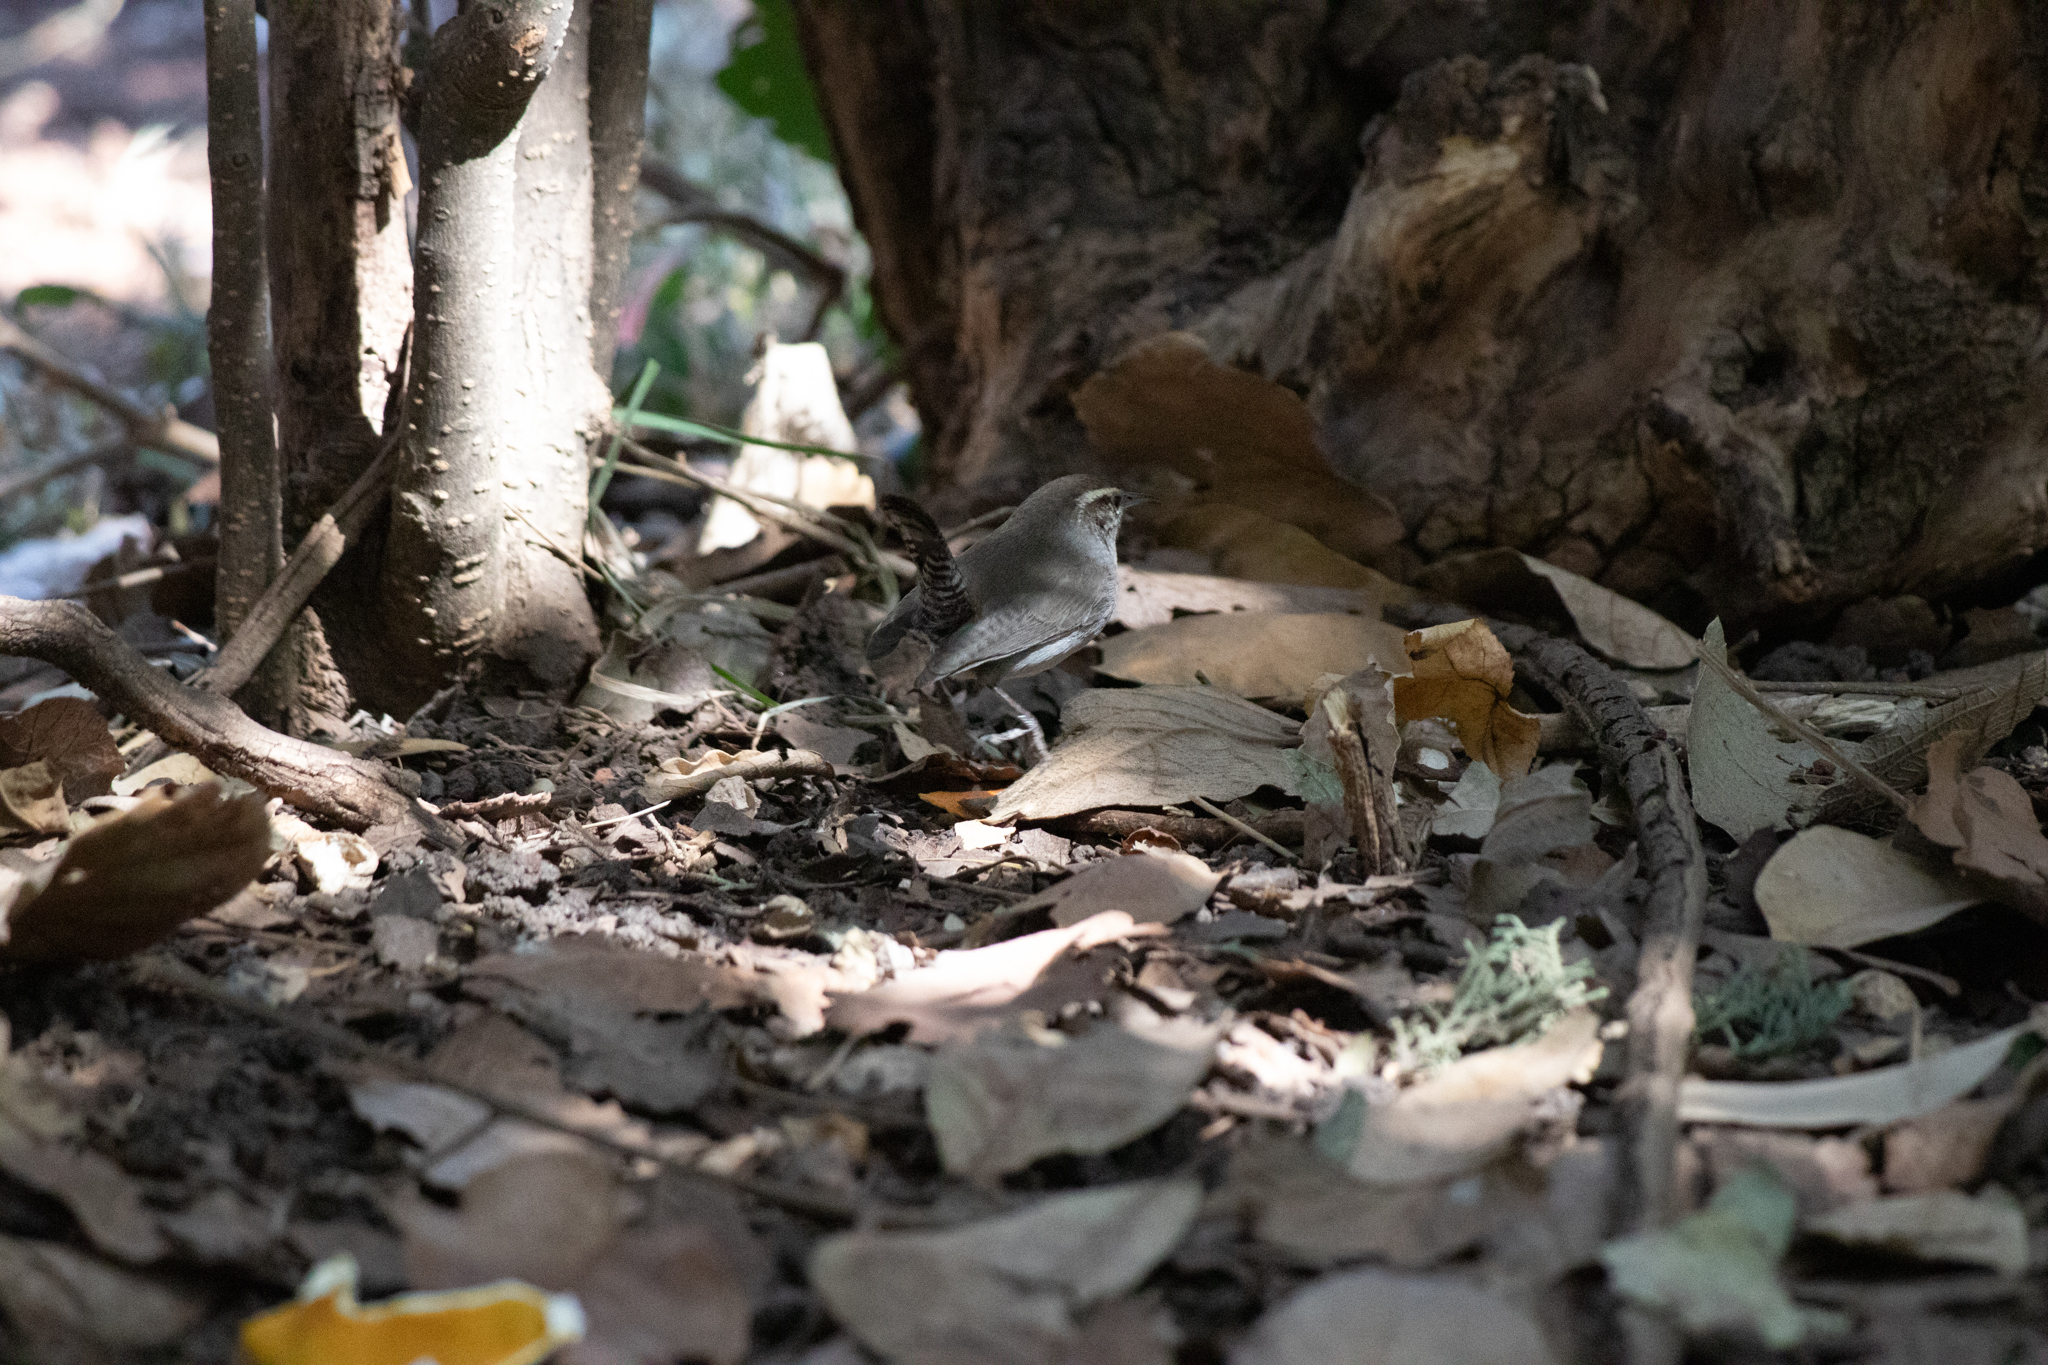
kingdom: Animalia
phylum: Chordata
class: Aves
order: Passeriformes
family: Troglodytidae
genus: Thryomanes
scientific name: Thryomanes bewickii
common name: Bewick's wren
